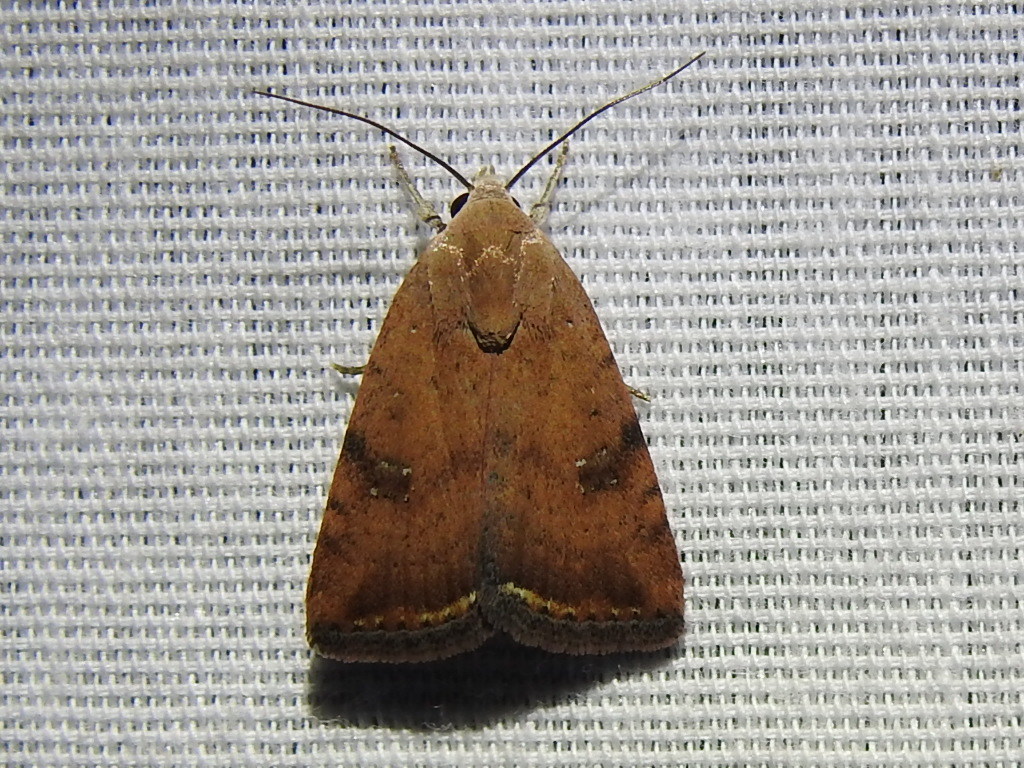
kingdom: Animalia
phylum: Arthropoda
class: Insecta
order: Lepidoptera
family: Noctuidae
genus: Micrathetis
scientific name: Micrathetis triplex
